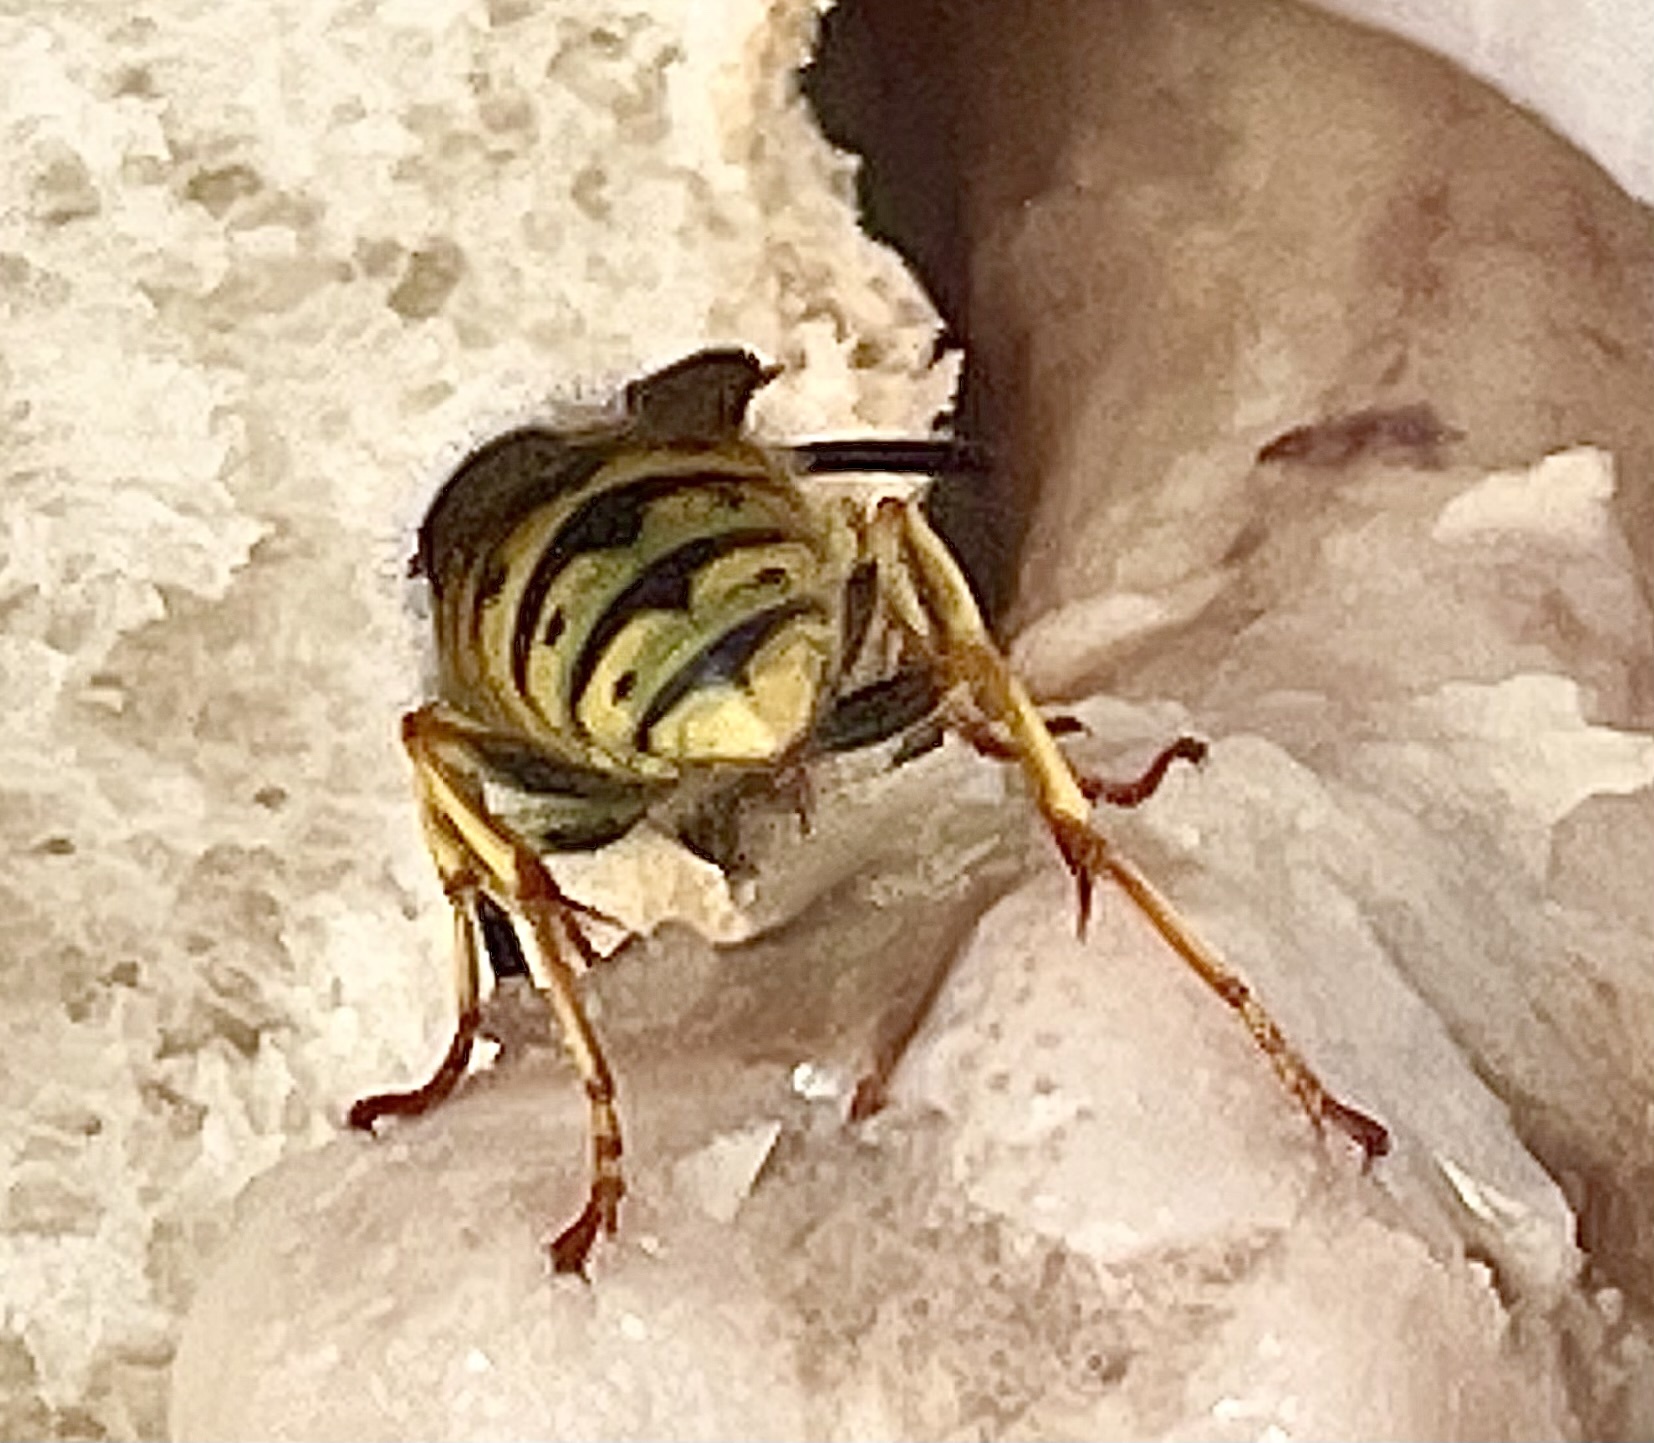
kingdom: Animalia
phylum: Arthropoda
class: Insecta
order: Hymenoptera
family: Vespidae
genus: Vespula
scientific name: Vespula
